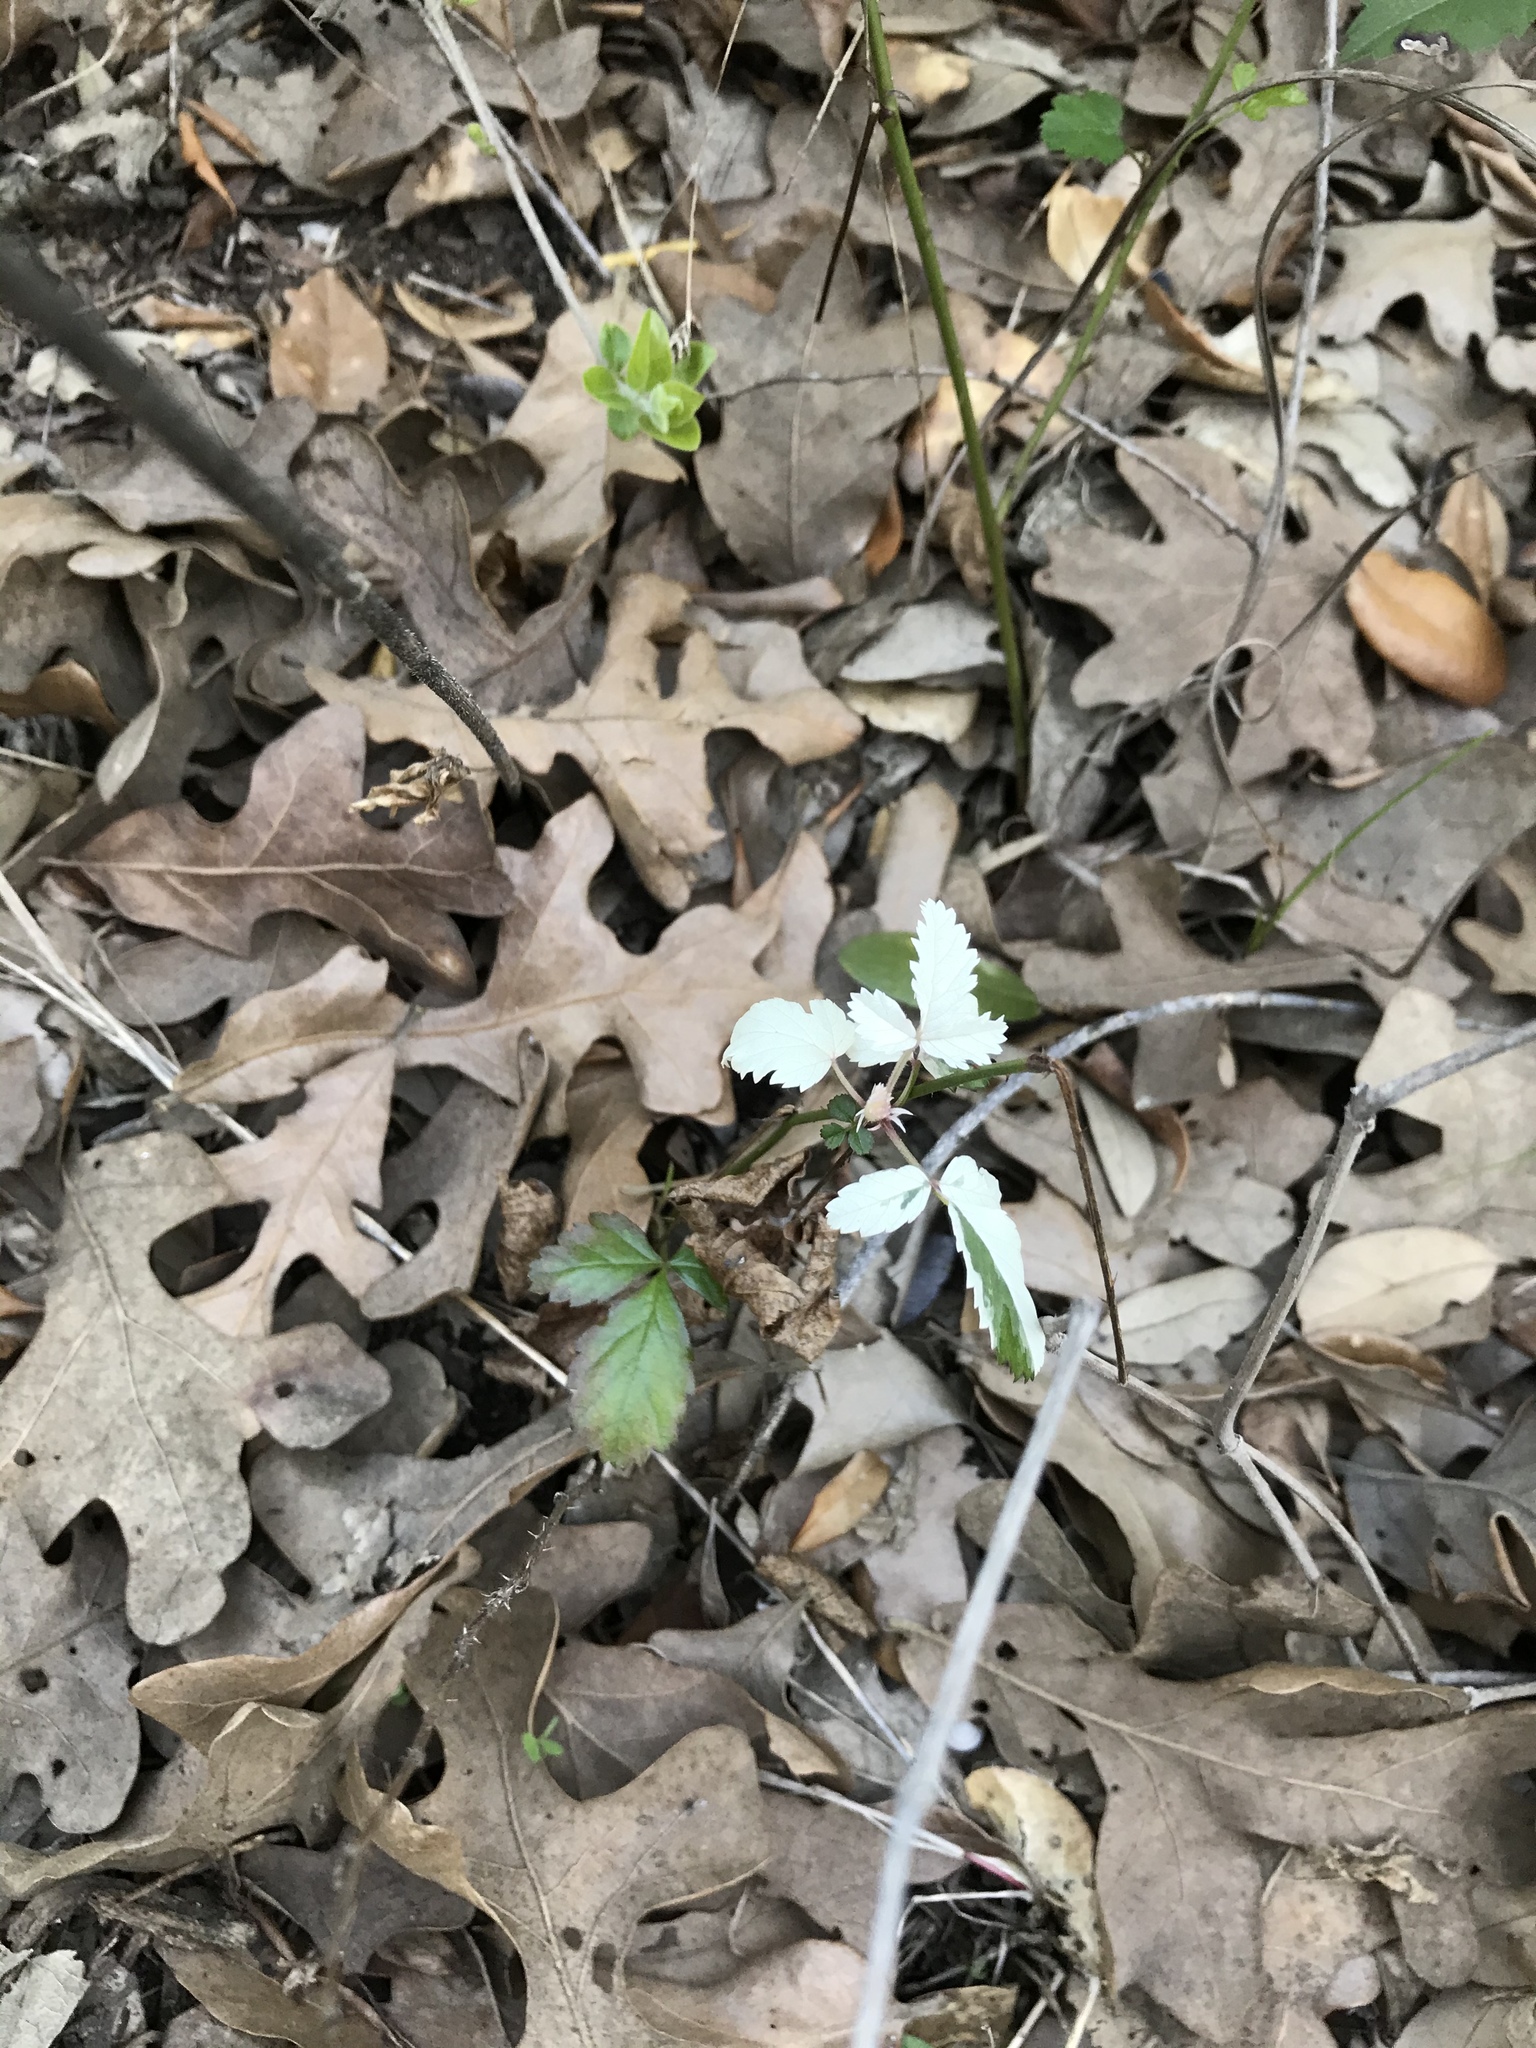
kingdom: Plantae
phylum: Tracheophyta
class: Magnoliopsida
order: Rosales
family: Rosaceae
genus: Rubus
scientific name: Rubus trivialis
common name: Southern dewberry
